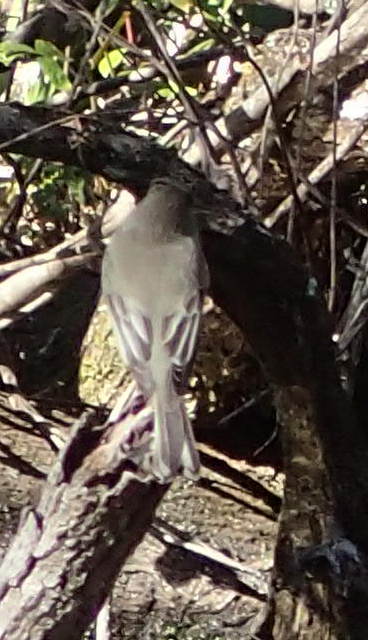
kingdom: Animalia
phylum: Chordata
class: Aves
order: Passeriformes
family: Tyrannidae
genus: Sayornis
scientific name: Sayornis phoebe
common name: Eastern phoebe
